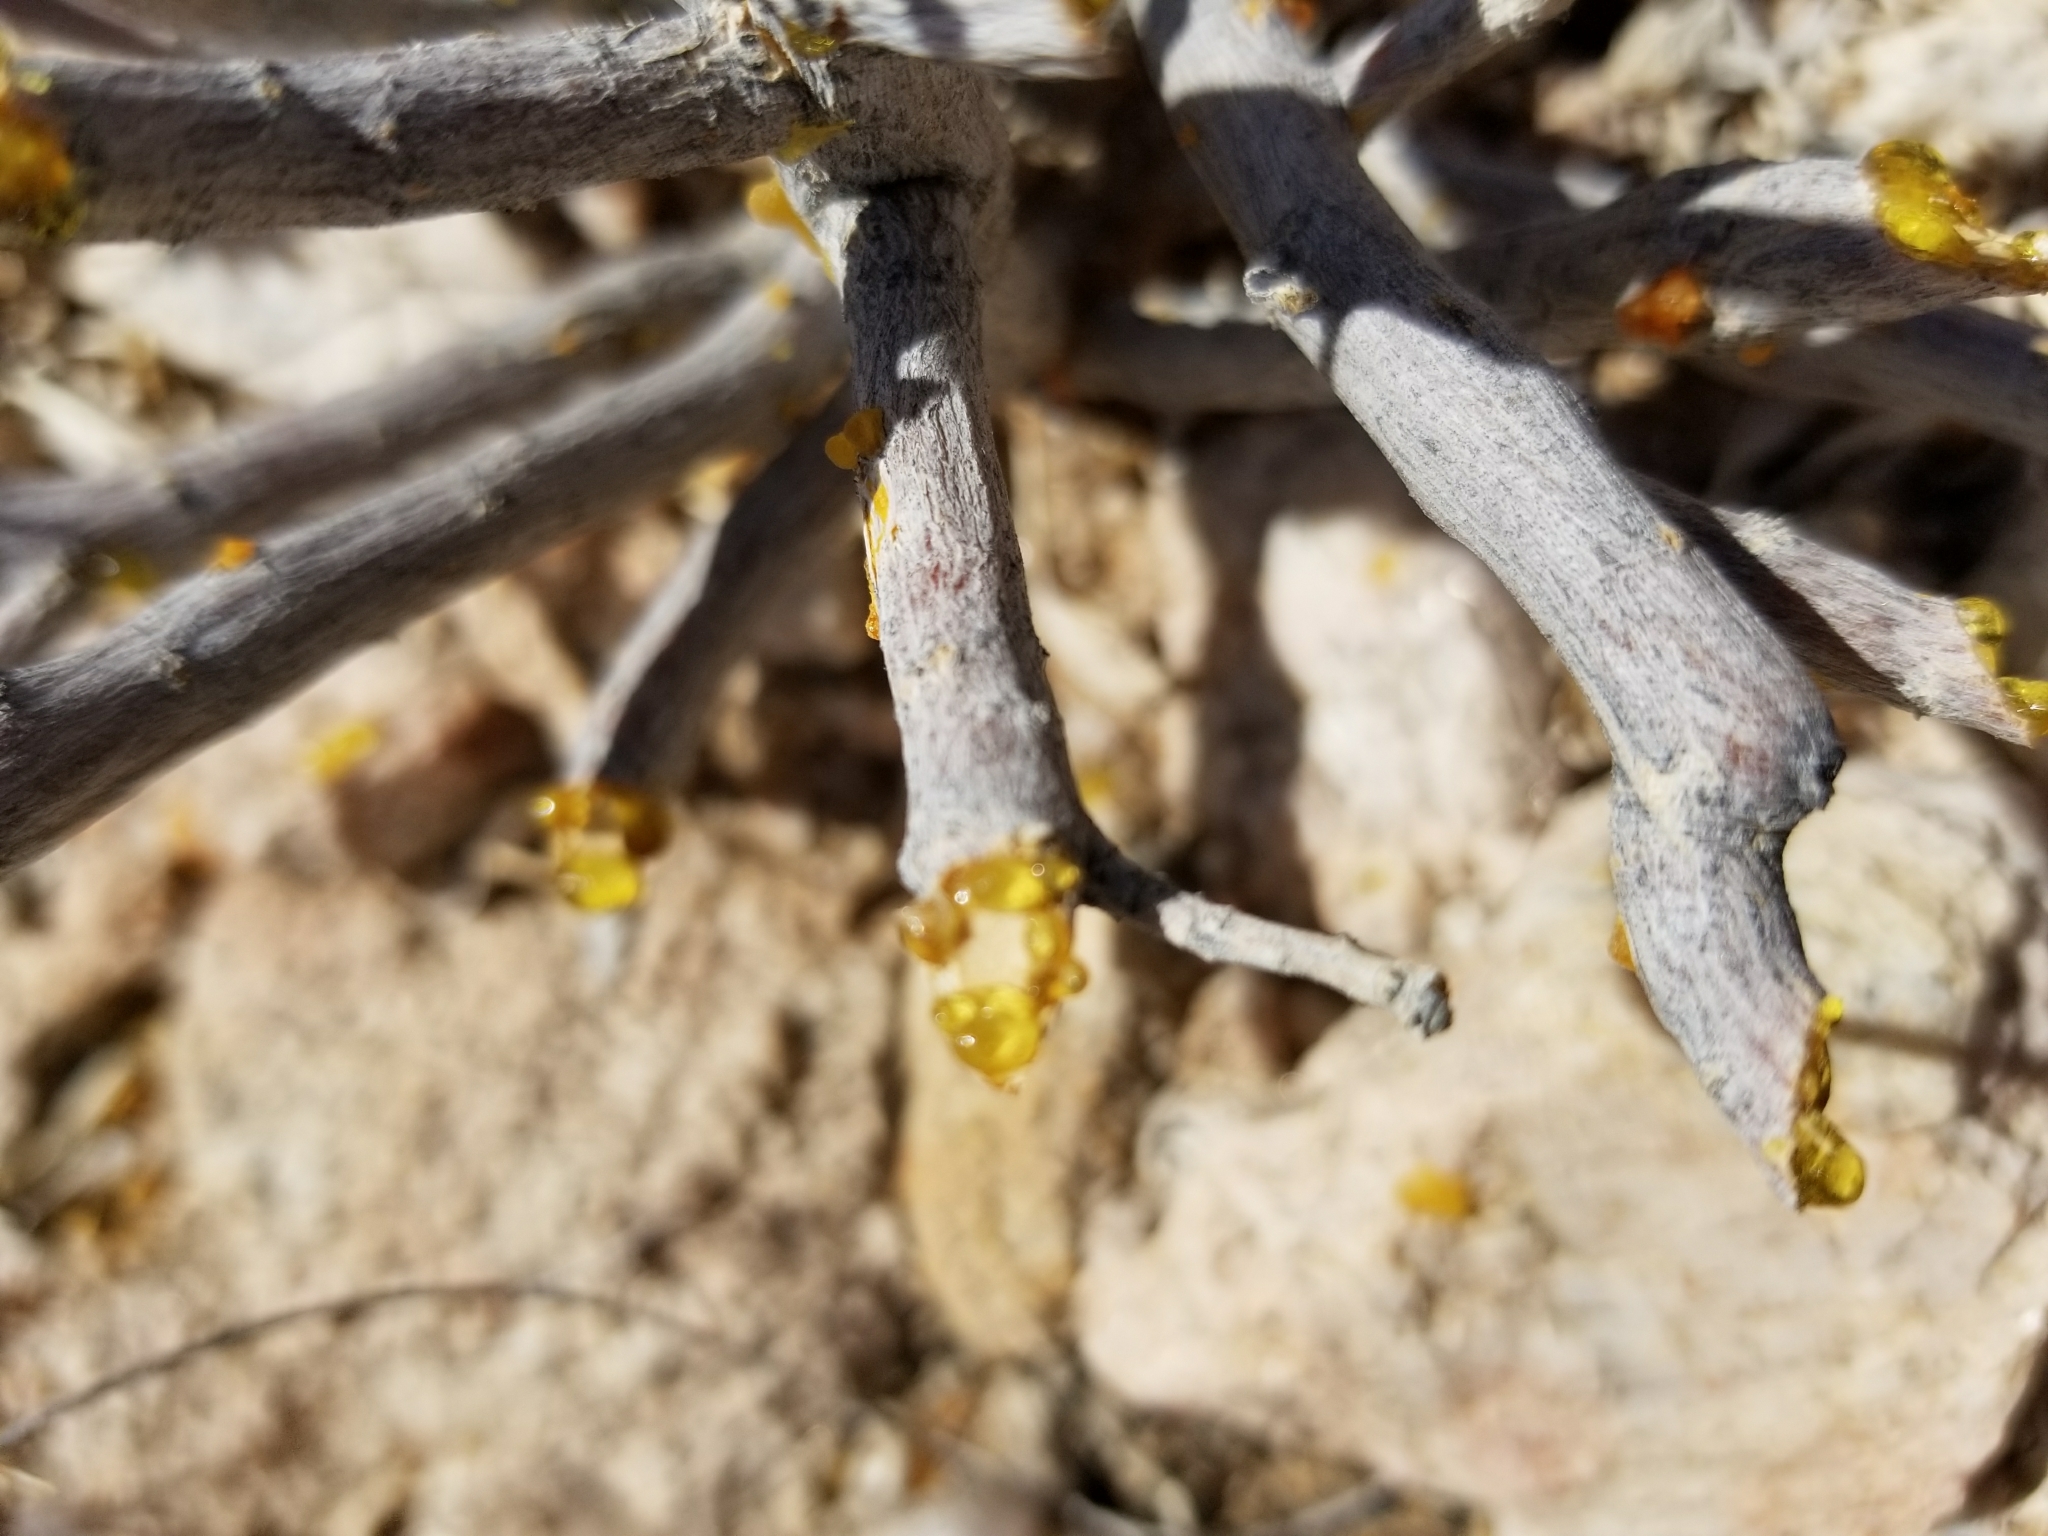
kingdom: Plantae
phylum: Tracheophyta
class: Magnoliopsida
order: Asterales
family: Asteraceae
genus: Encelia
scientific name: Encelia farinosa
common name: Brittlebush
